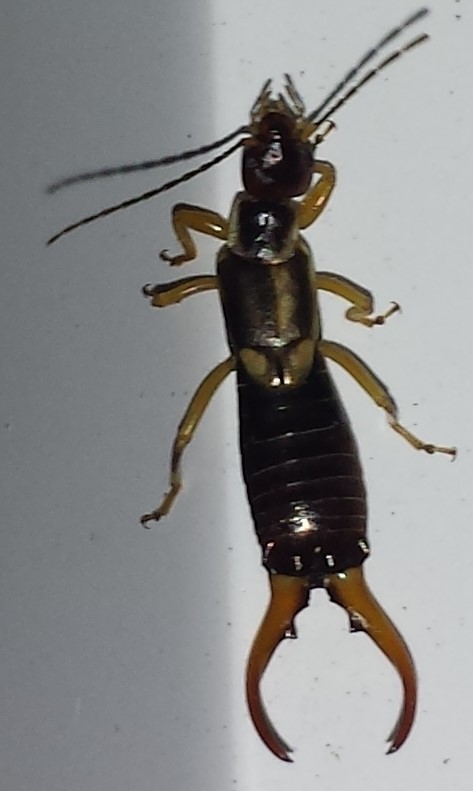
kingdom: Animalia
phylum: Arthropoda
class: Insecta
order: Dermaptera
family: Forficulidae
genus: Forficula
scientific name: Forficula
